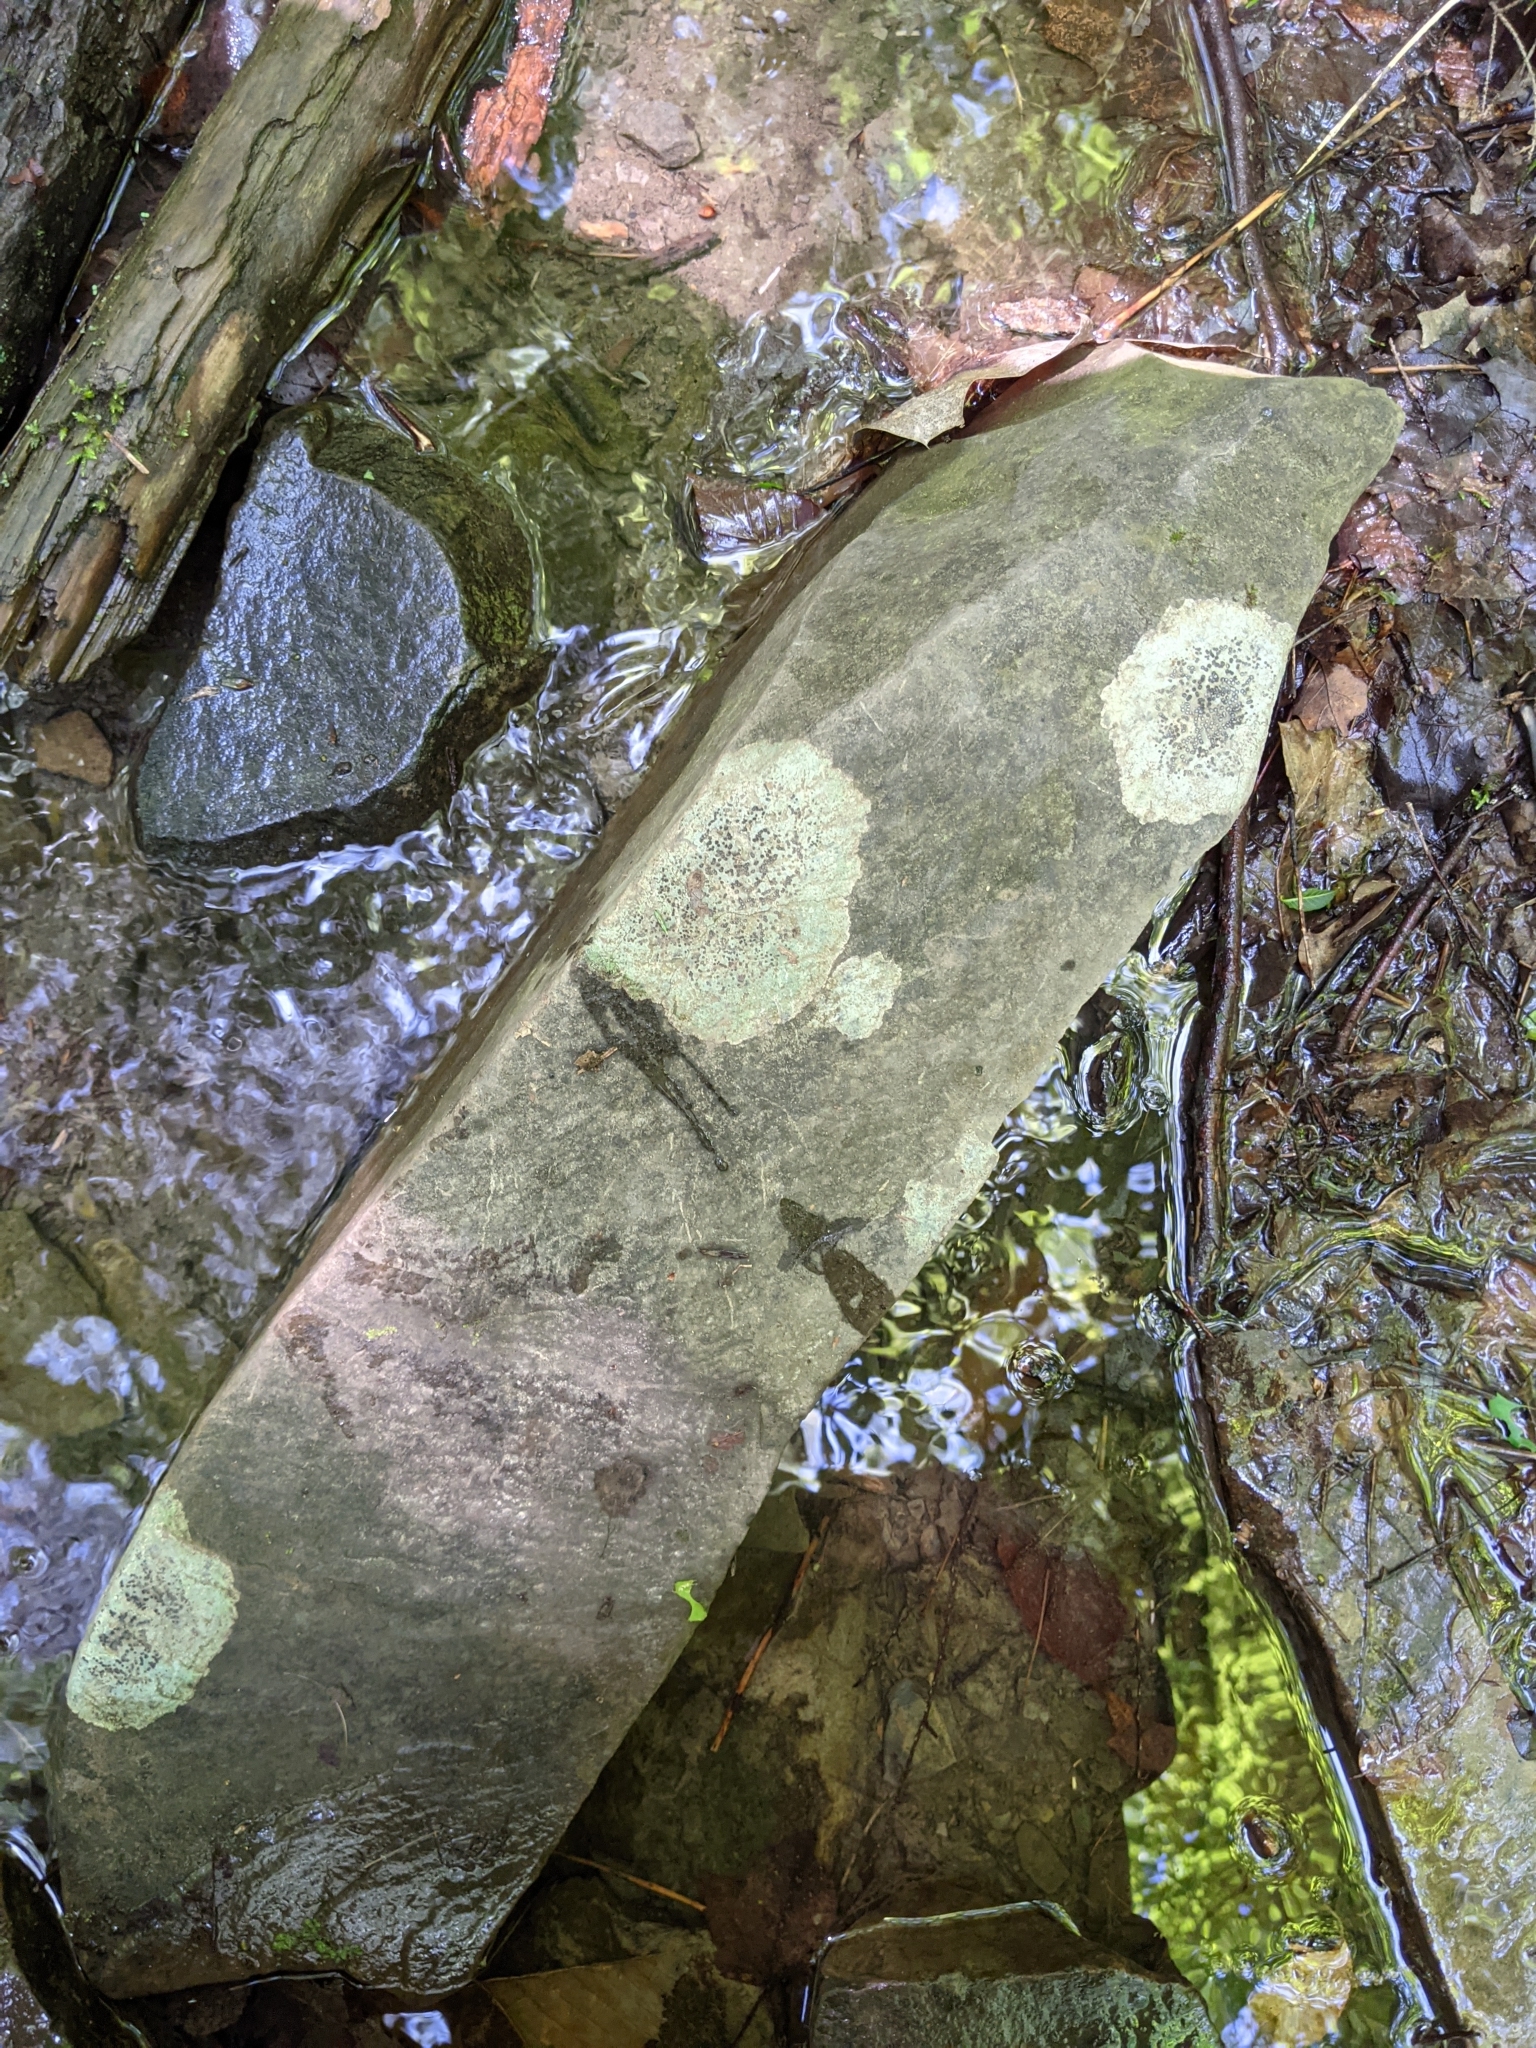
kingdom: Fungi
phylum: Ascomycota
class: Lecanoromycetes
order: Lecideales
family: Lecideaceae
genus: Porpidia
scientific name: Porpidia albocaerulescens
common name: Smokey-eyed boulder lichen
